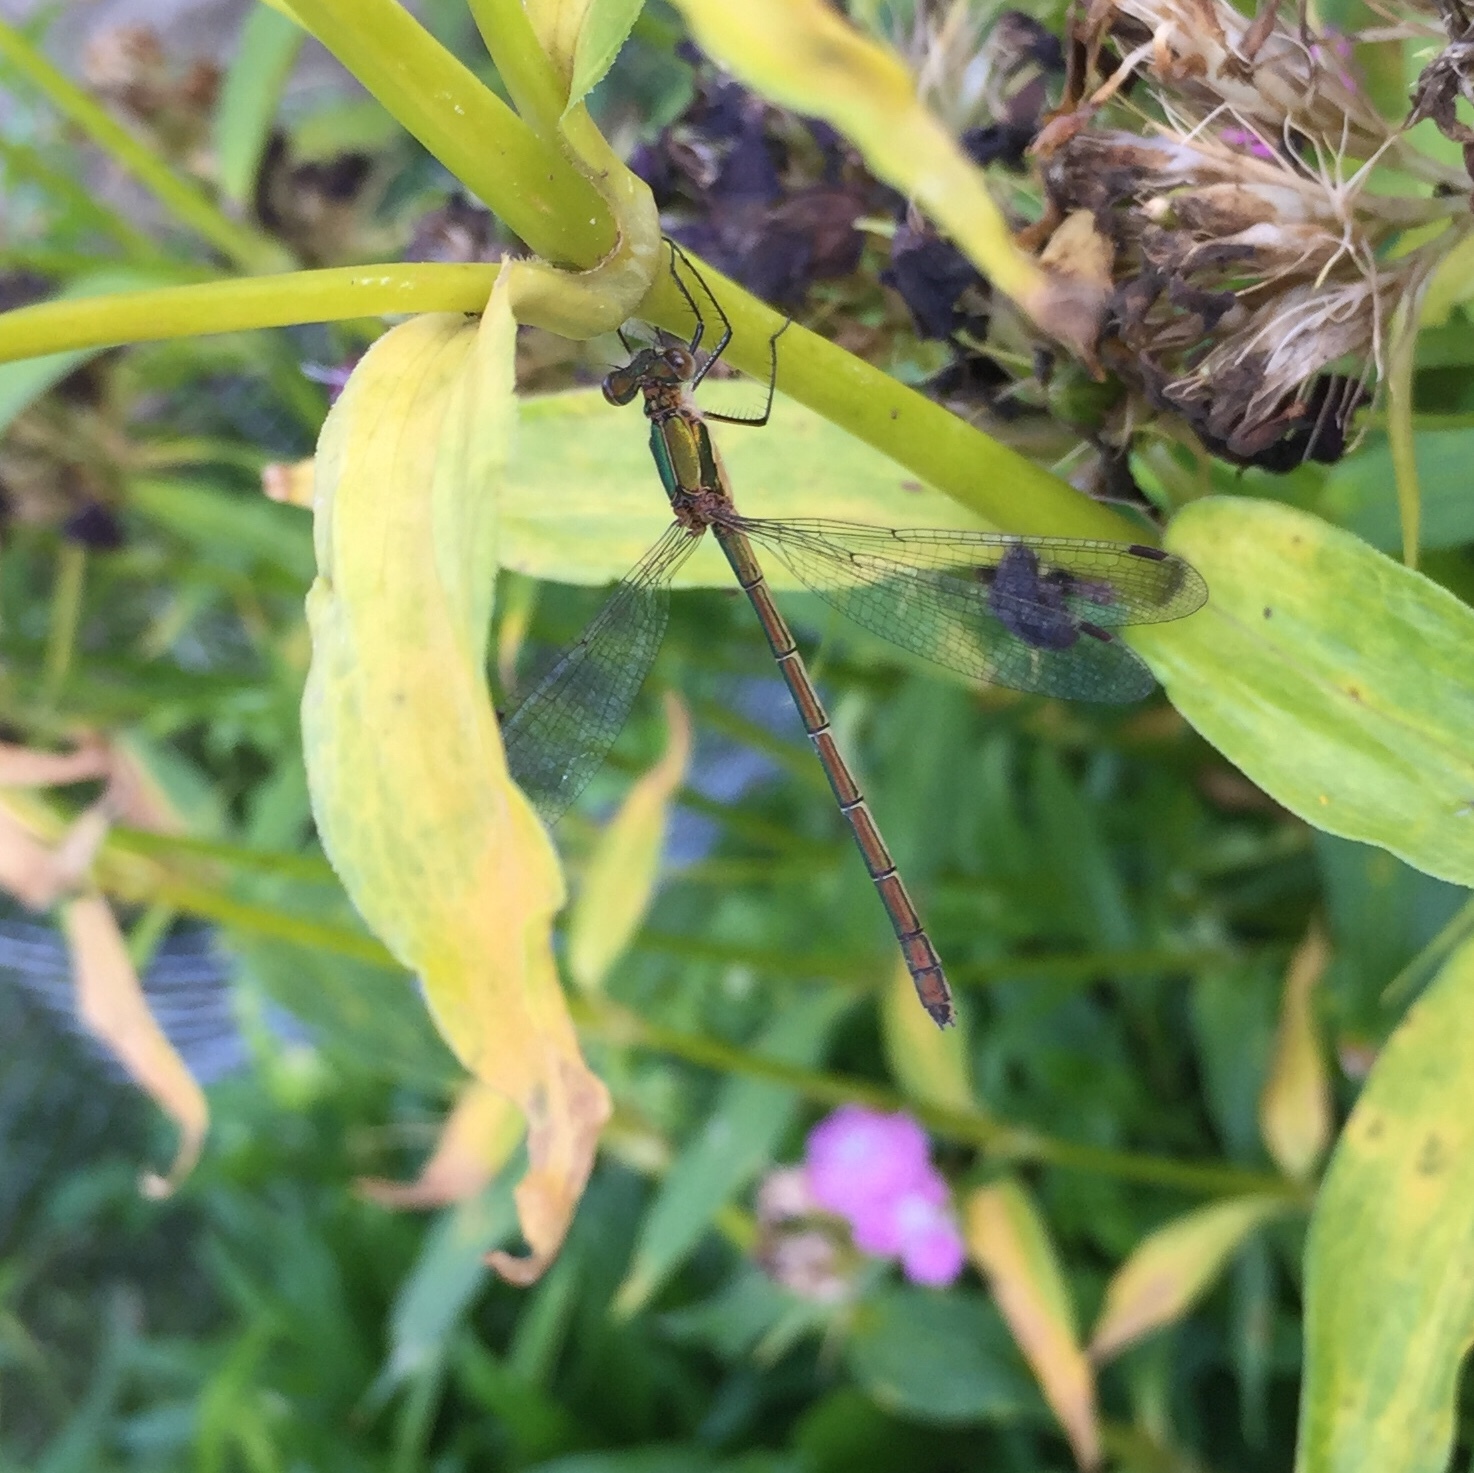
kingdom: Animalia
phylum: Arthropoda
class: Insecta
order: Odonata
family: Lestidae
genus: Lestes
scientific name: Lestes sponsa
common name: Common spreadwing
